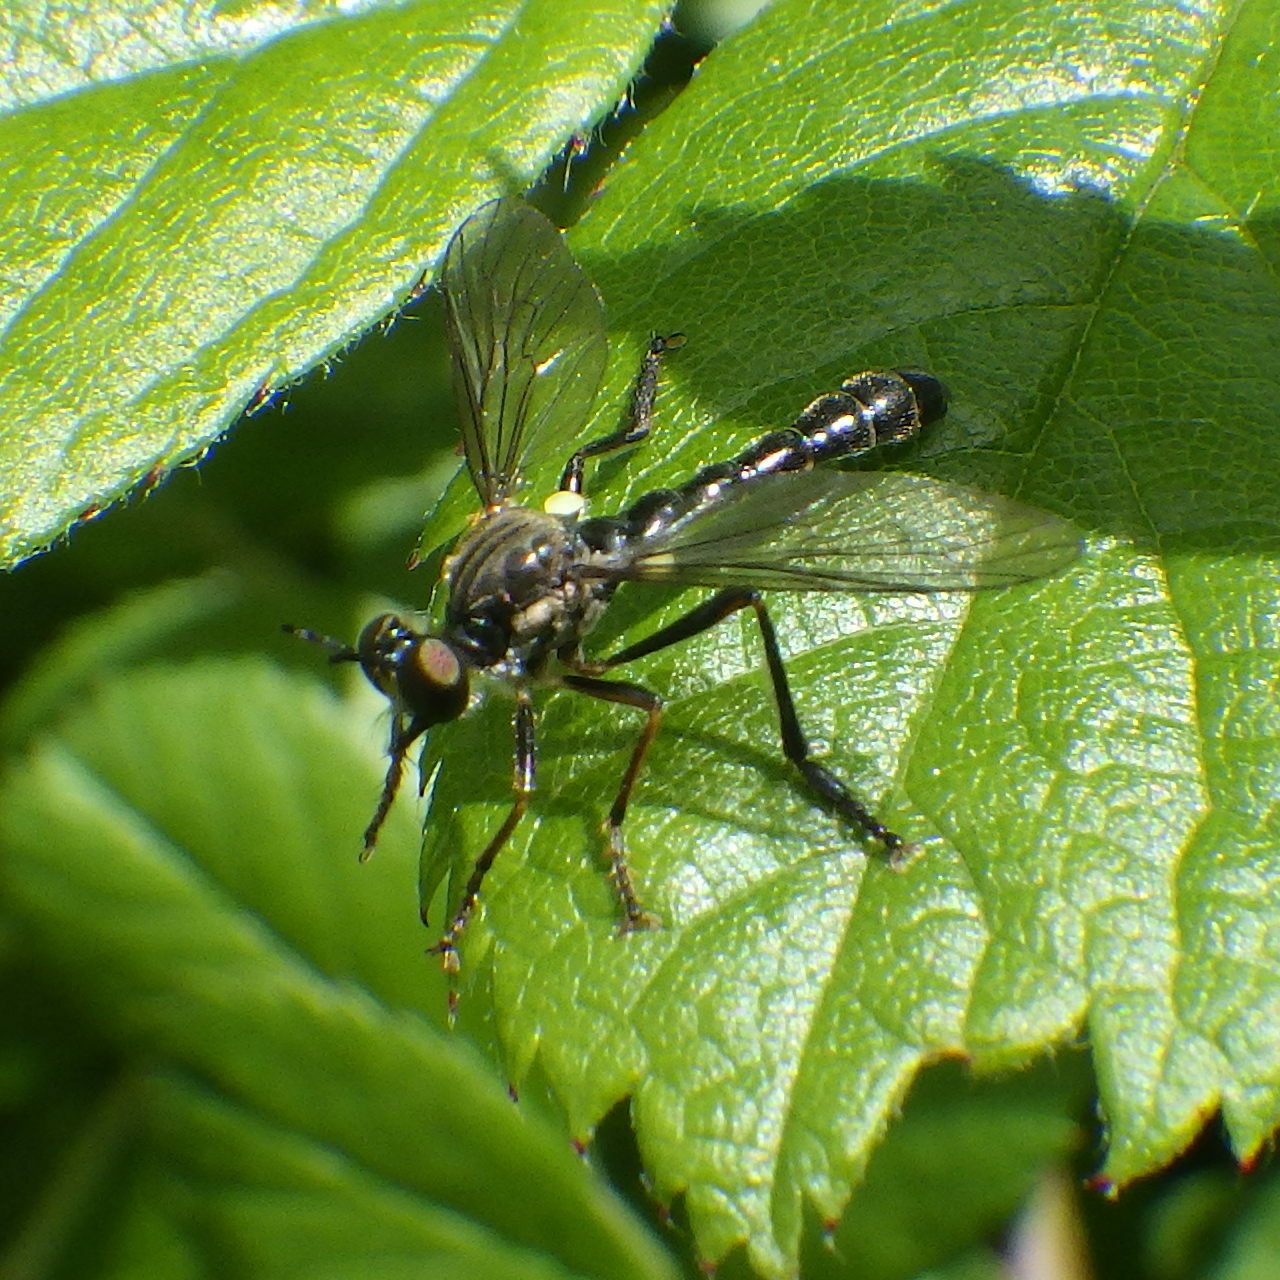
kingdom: Animalia
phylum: Arthropoda
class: Insecta
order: Diptera
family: Asilidae
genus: Dioctria
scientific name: Dioctria hyalipennis
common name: Stripe-legged robberfly
